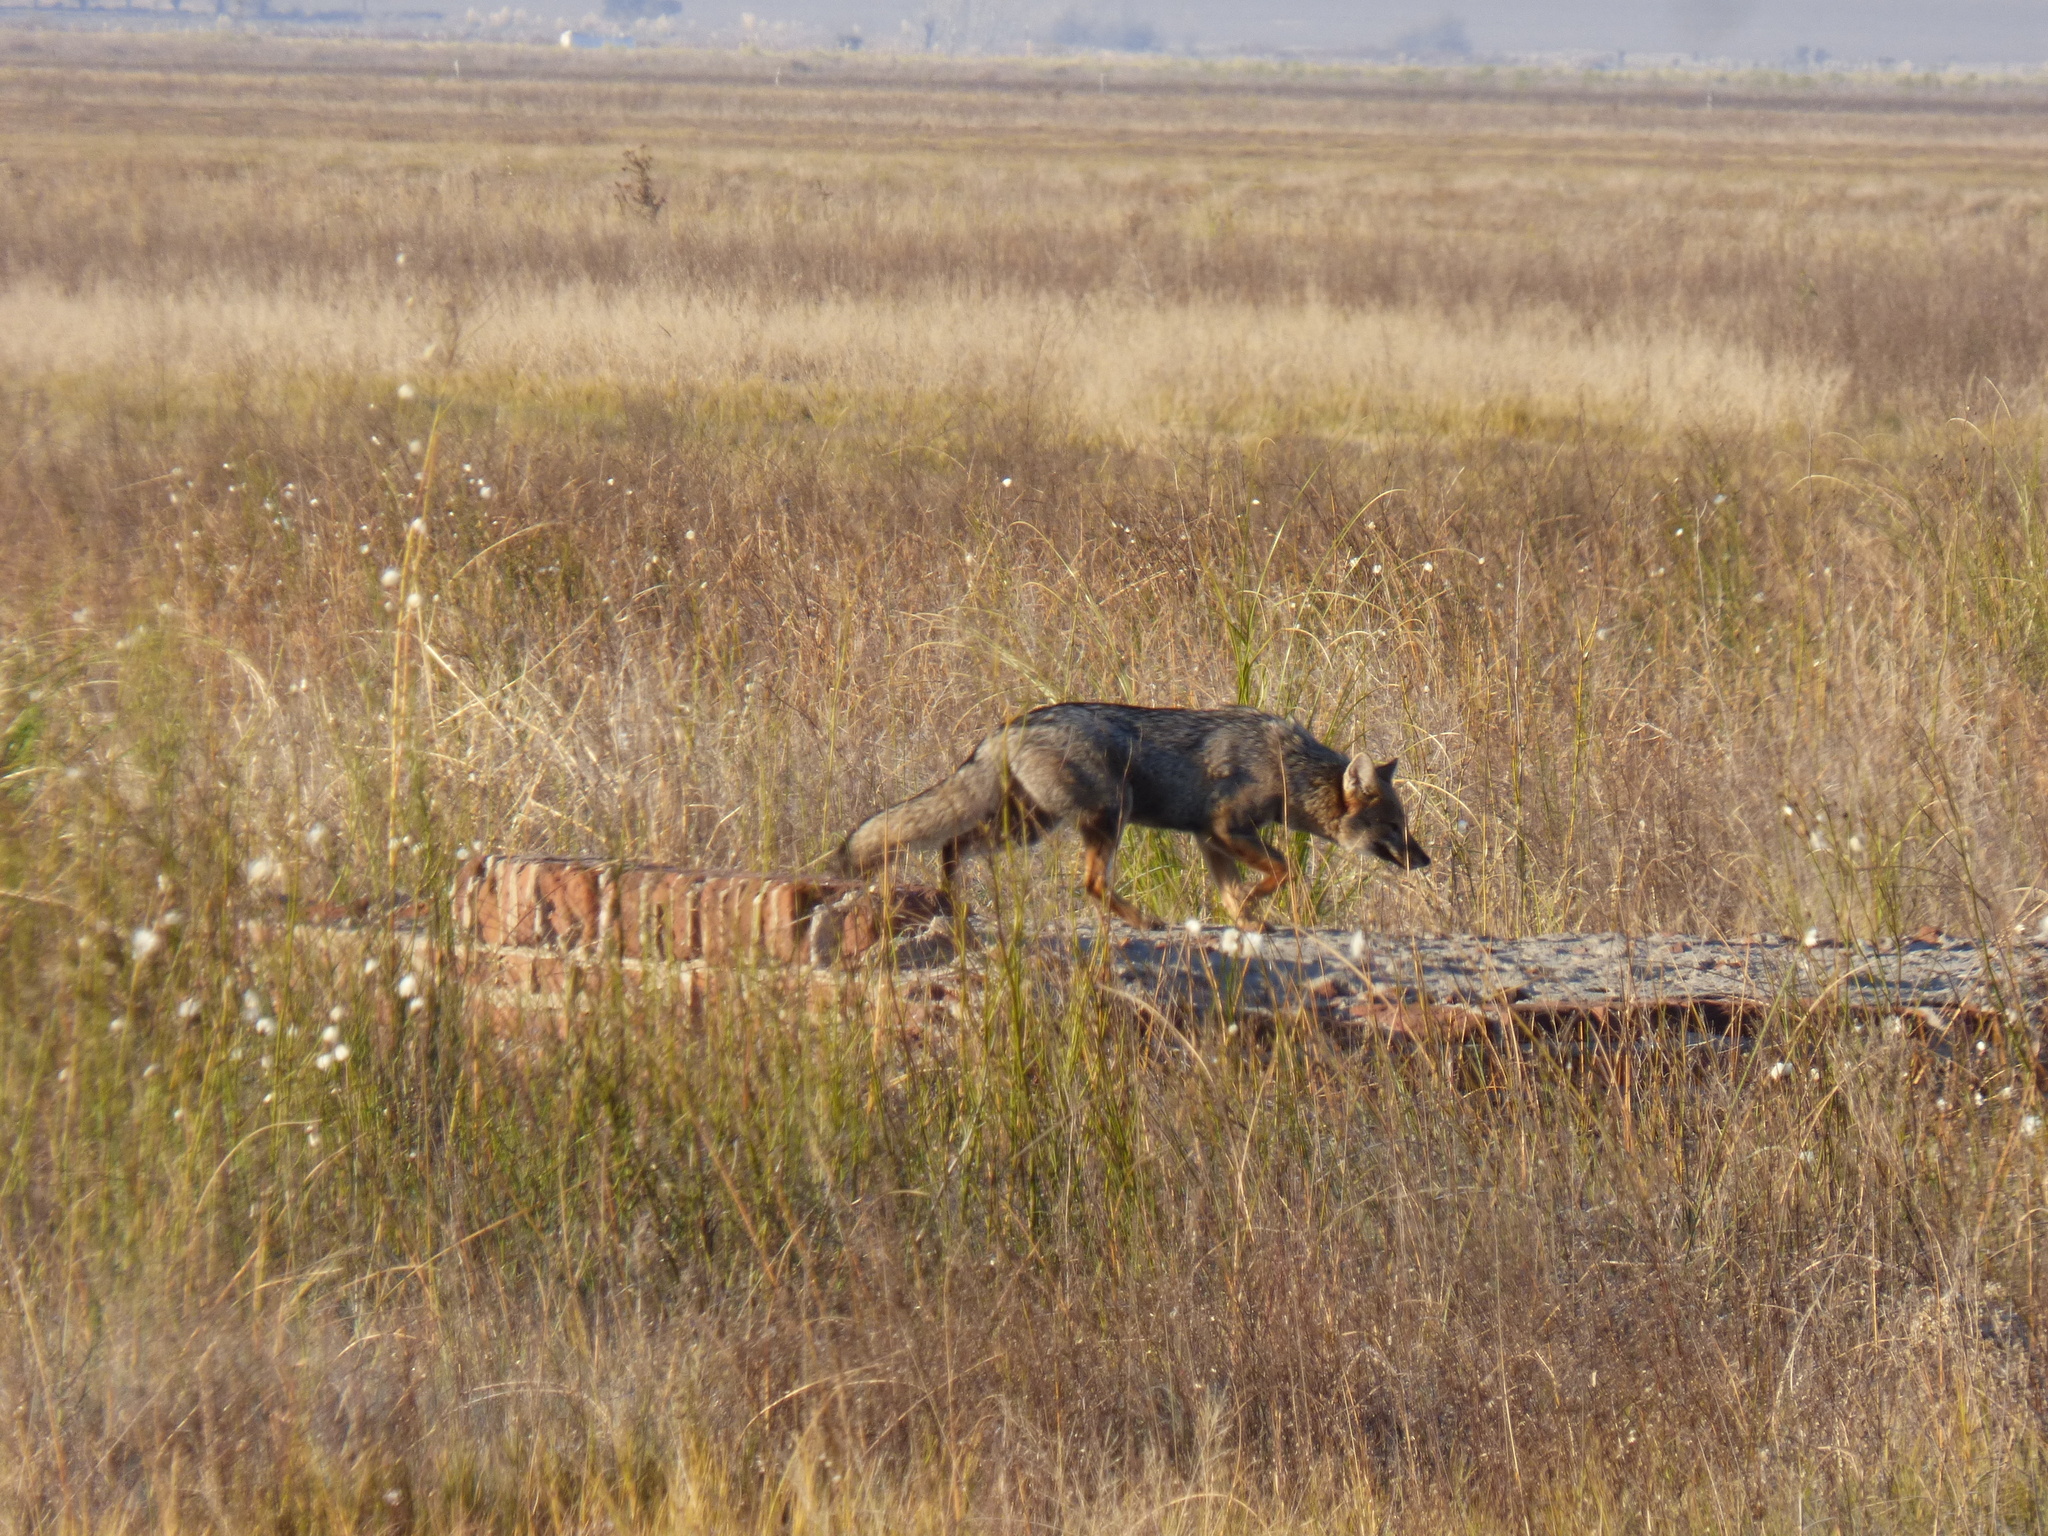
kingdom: Animalia
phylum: Chordata
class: Mammalia
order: Carnivora
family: Canidae
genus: Lycalopex
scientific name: Lycalopex gymnocercus
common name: Pampas fox
